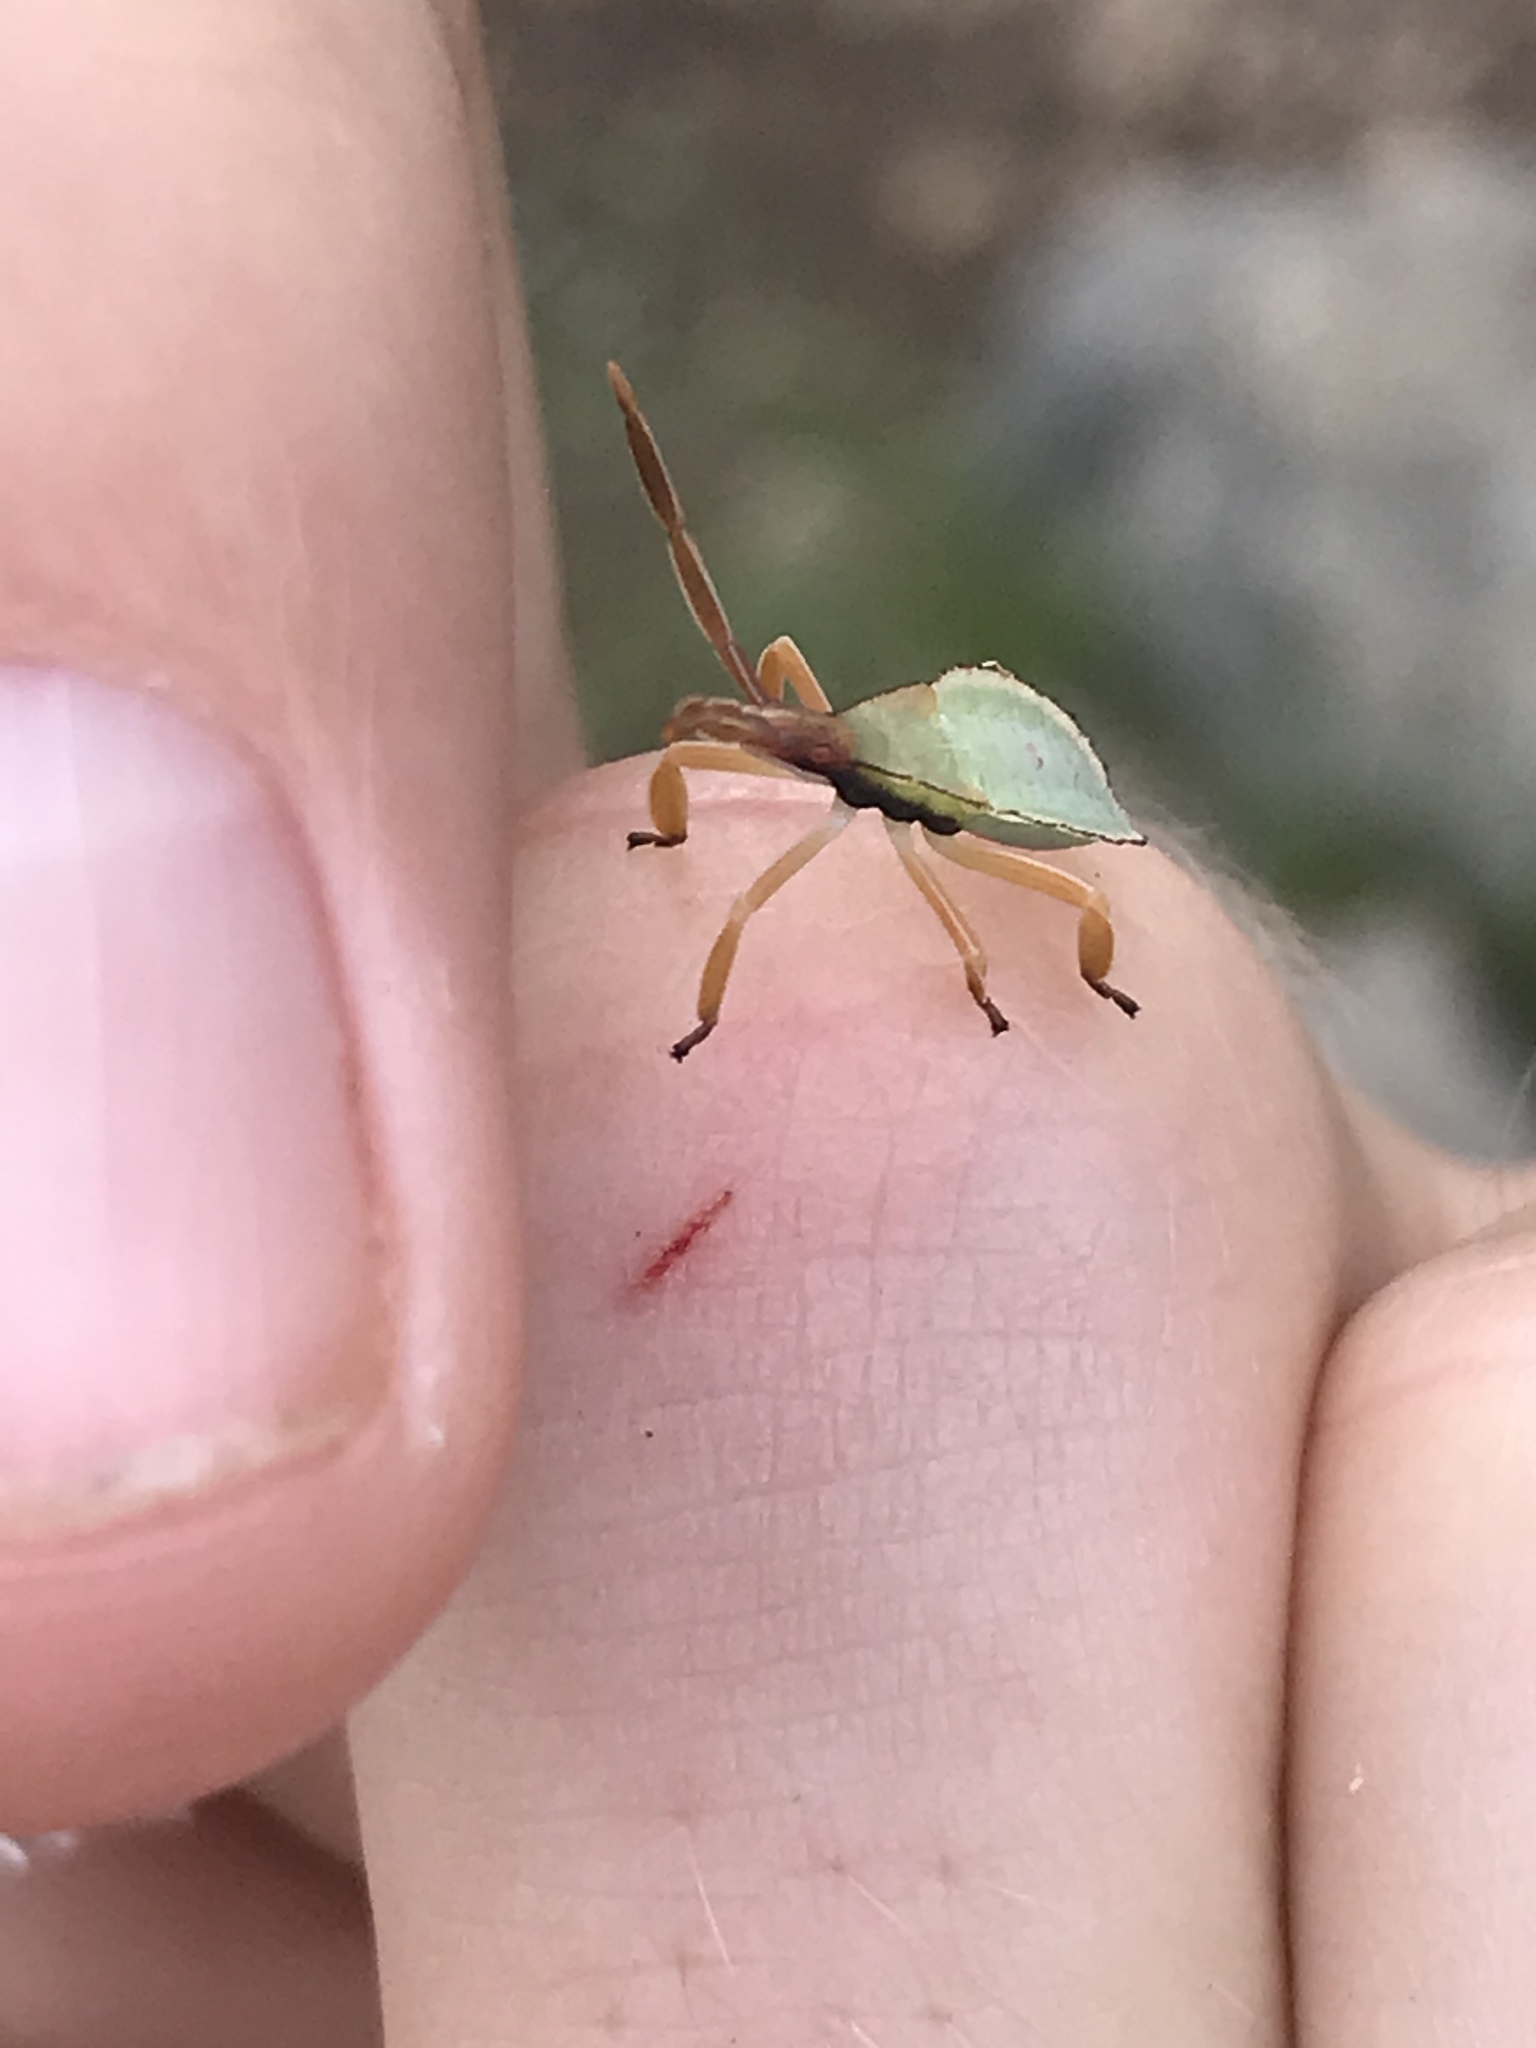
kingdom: Animalia
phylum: Arthropoda
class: Insecta
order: Hemiptera
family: Coreidae
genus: Chelinidea
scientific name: Chelinidea tabulata
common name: Prickly pear bug
